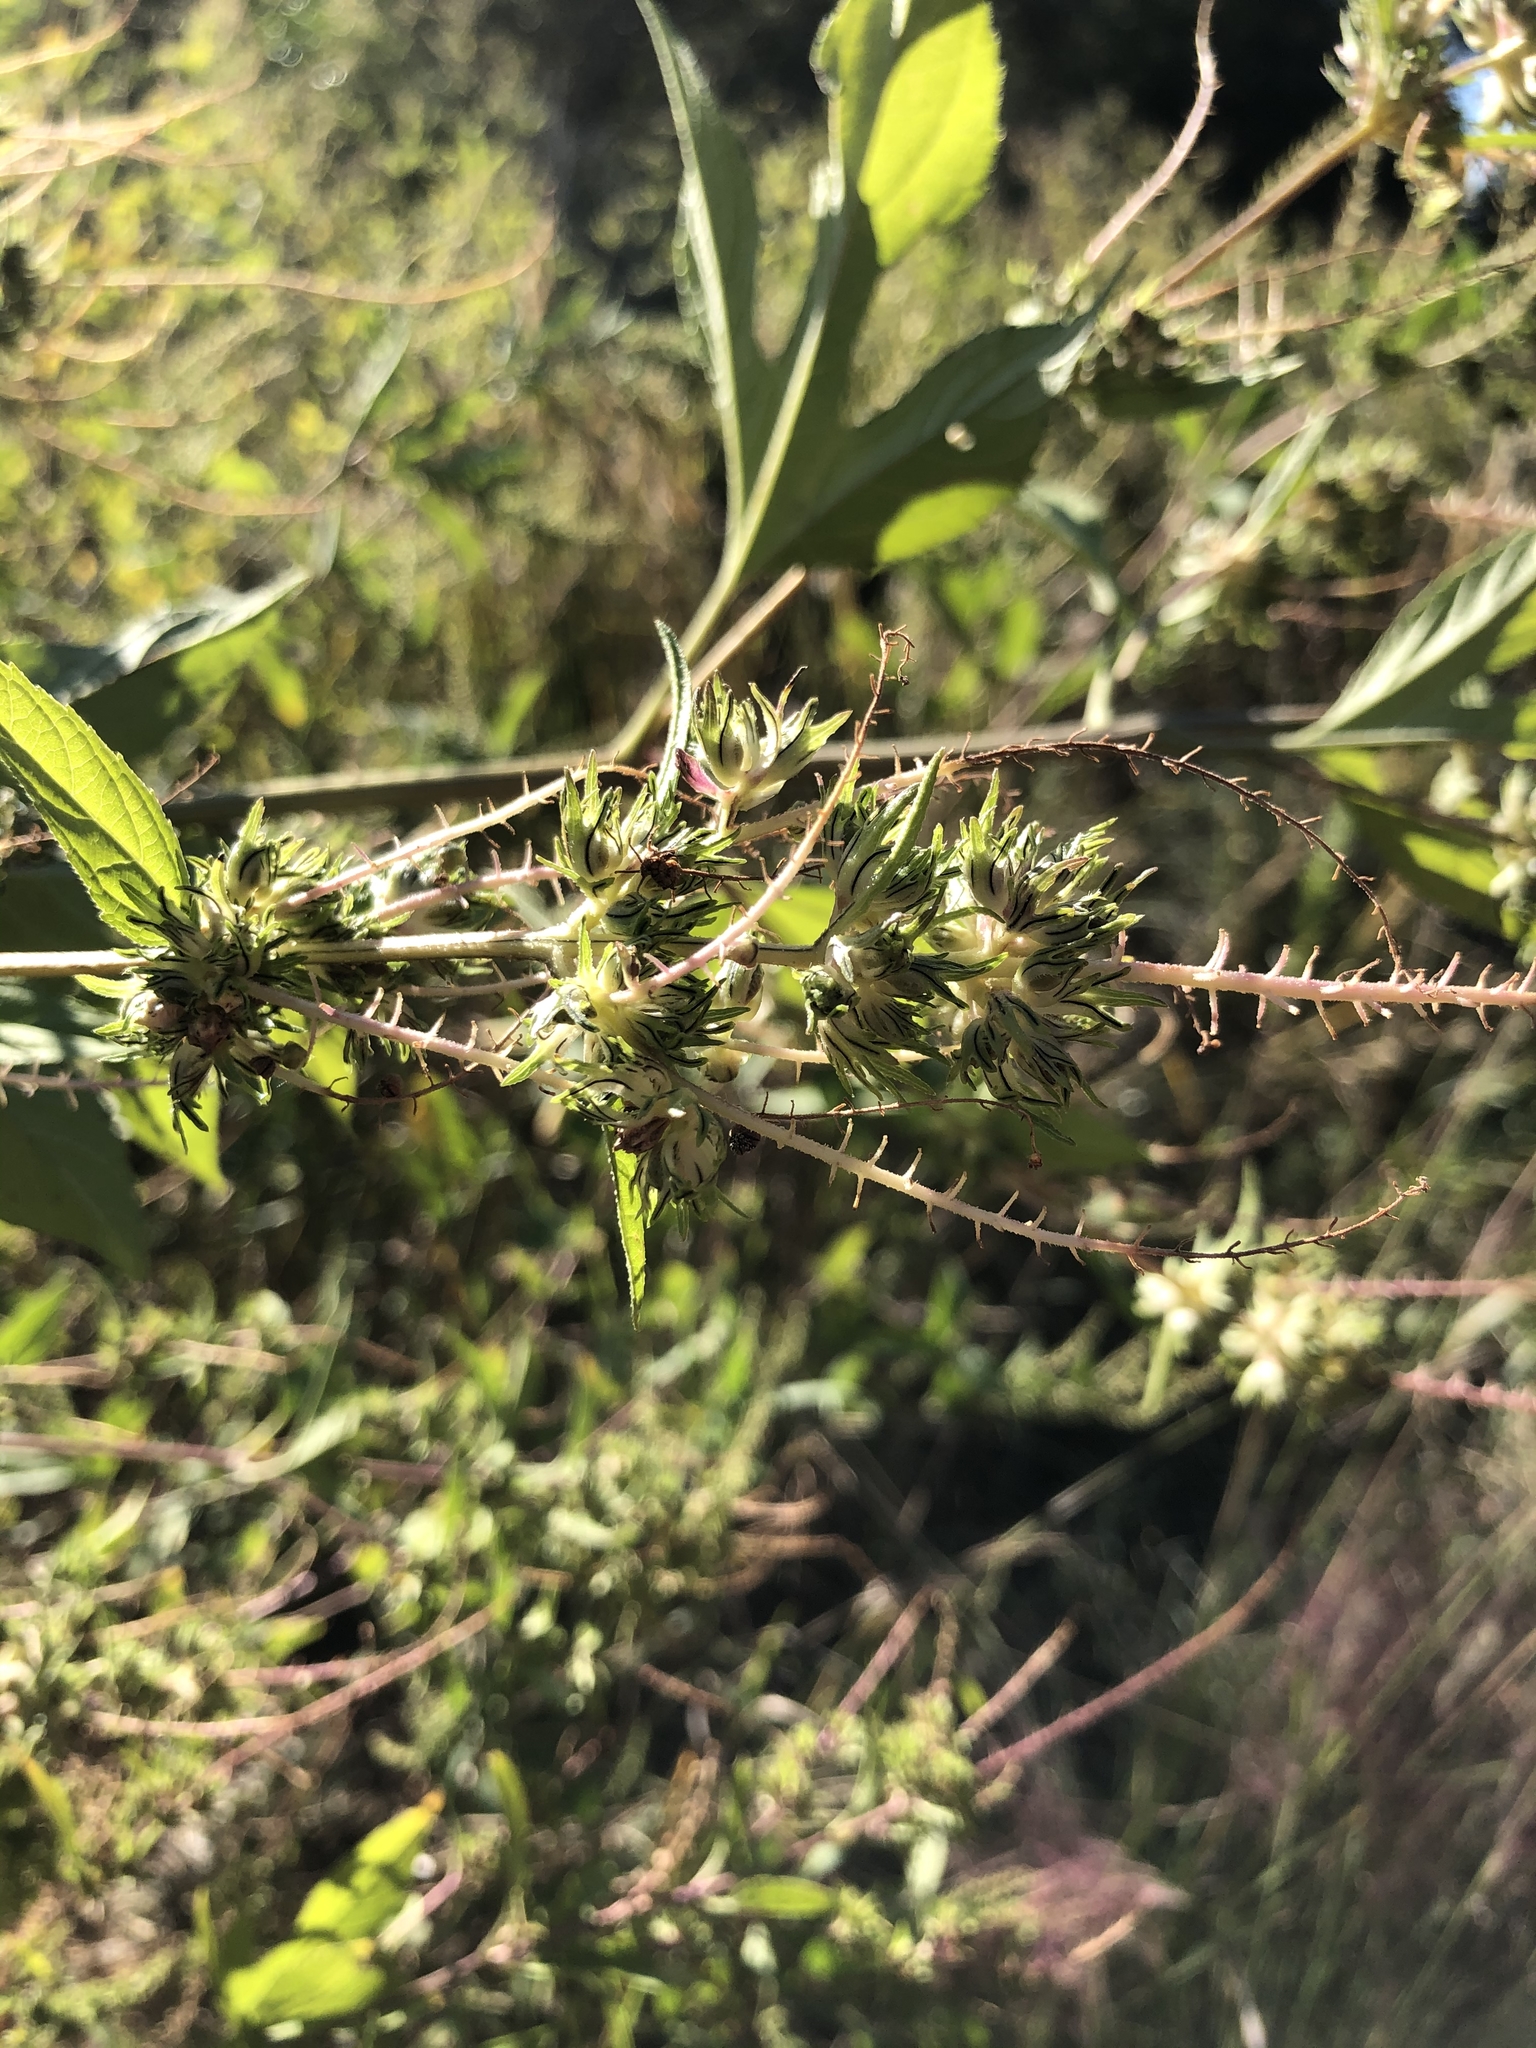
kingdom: Plantae
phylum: Tracheophyta
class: Magnoliopsida
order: Asterales
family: Asteraceae
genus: Ambrosia
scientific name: Ambrosia trifida
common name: Giant ragweed
